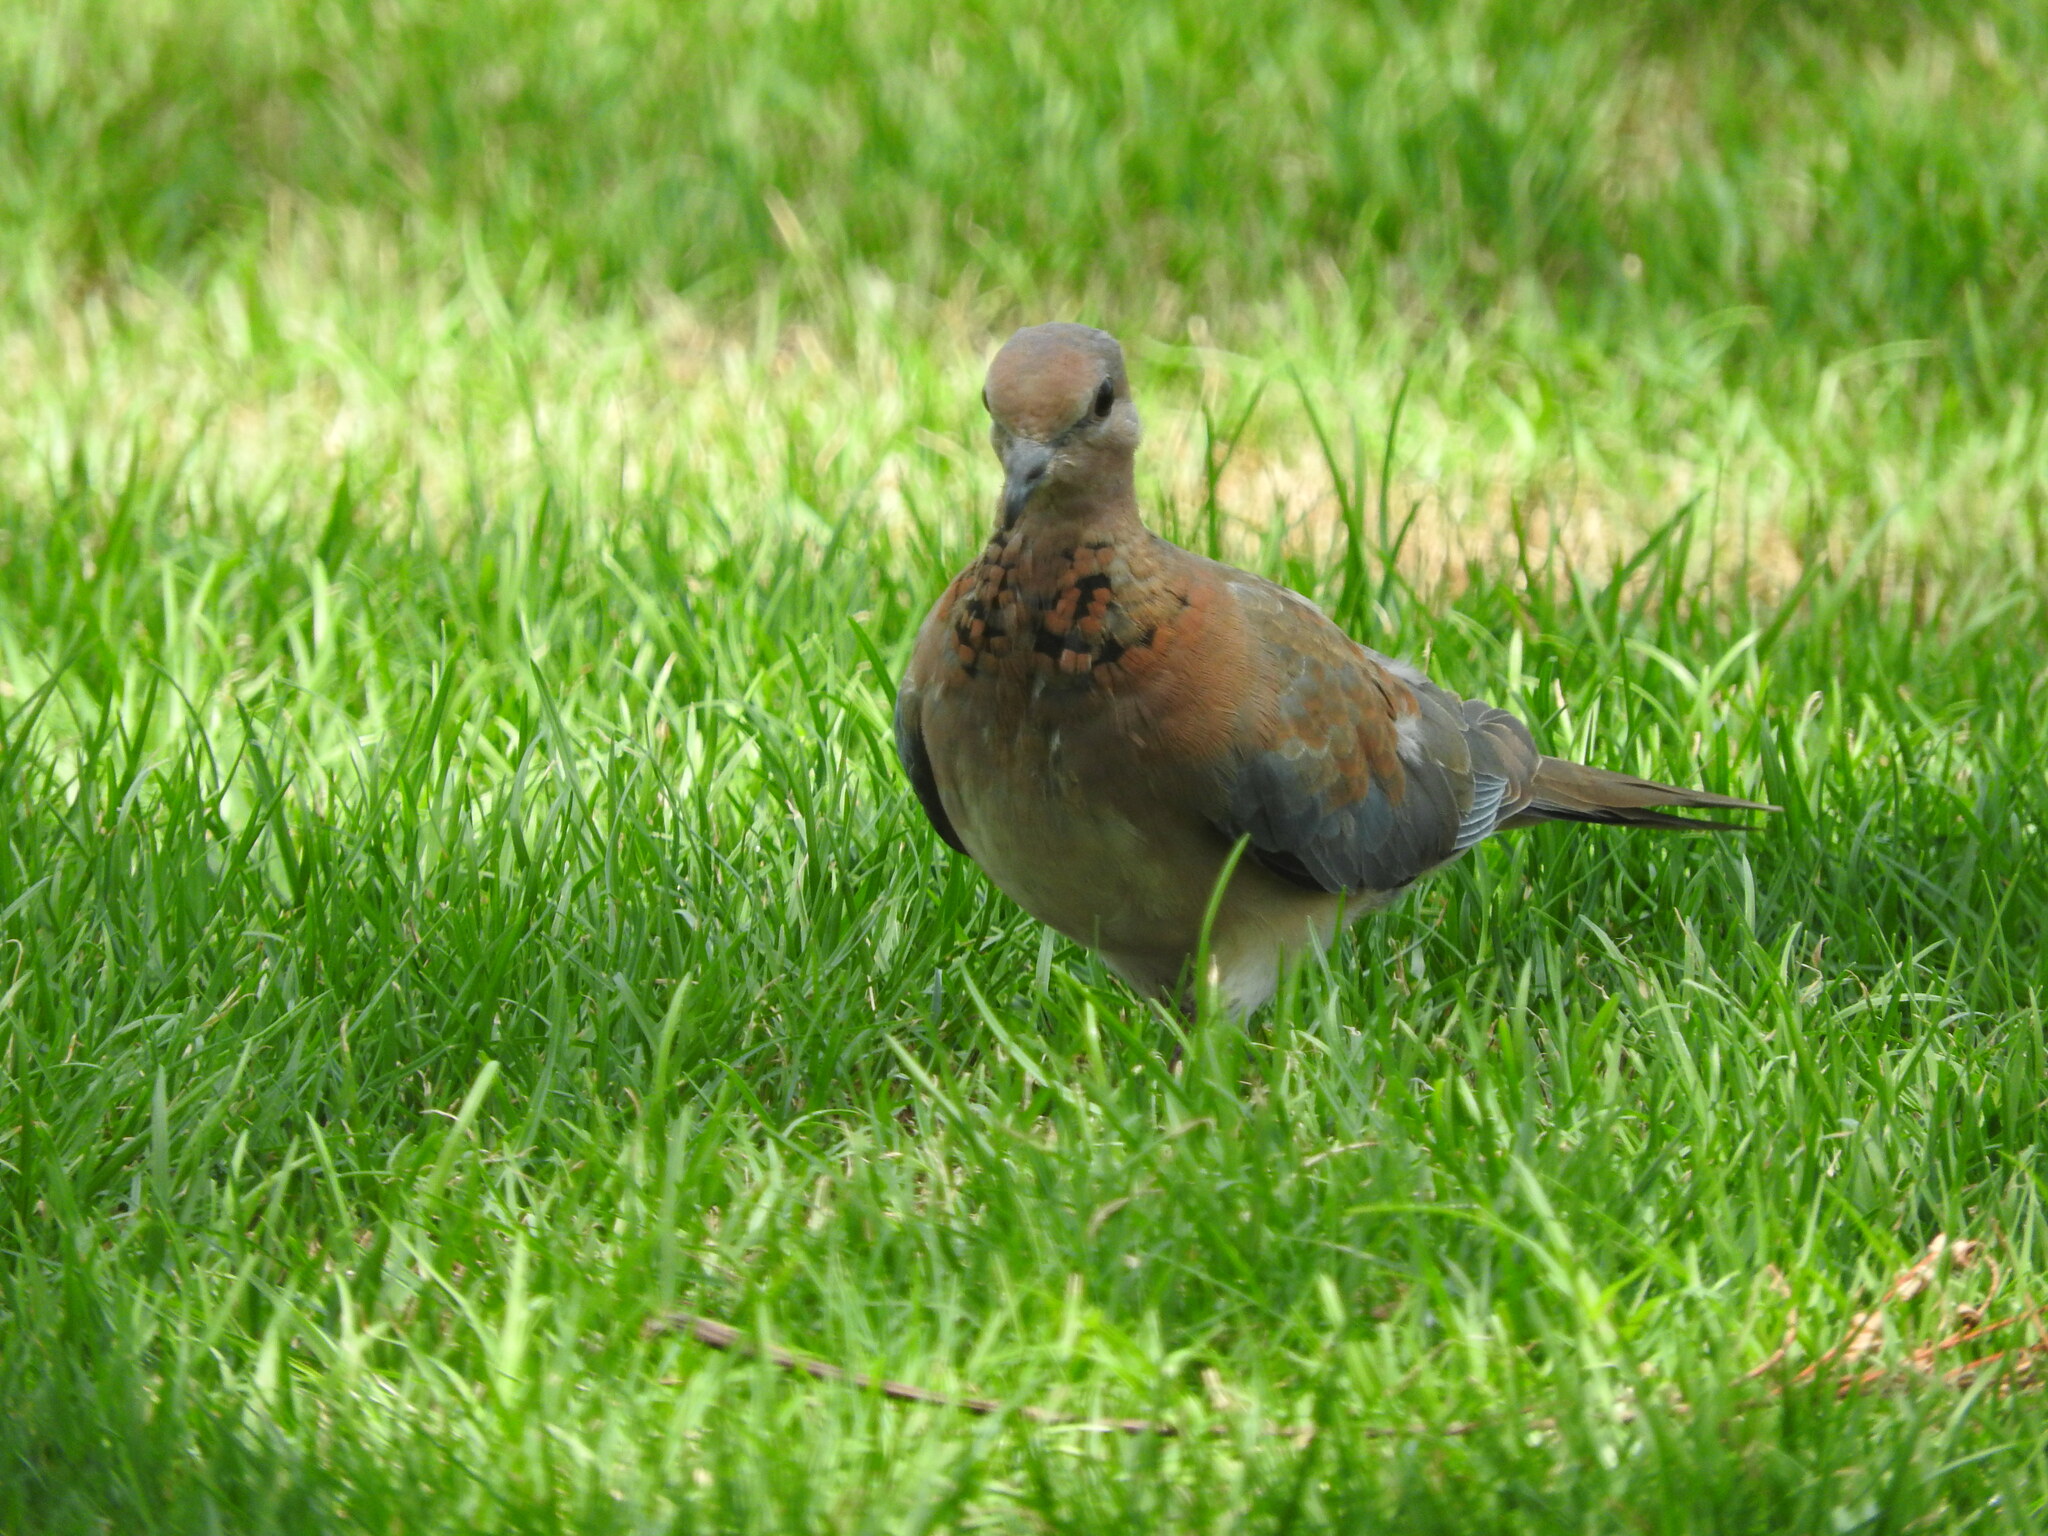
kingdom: Animalia
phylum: Chordata
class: Aves
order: Columbiformes
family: Columbidae
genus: Spilopelia
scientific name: Spilopelia senegalensis
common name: Laughing dove
